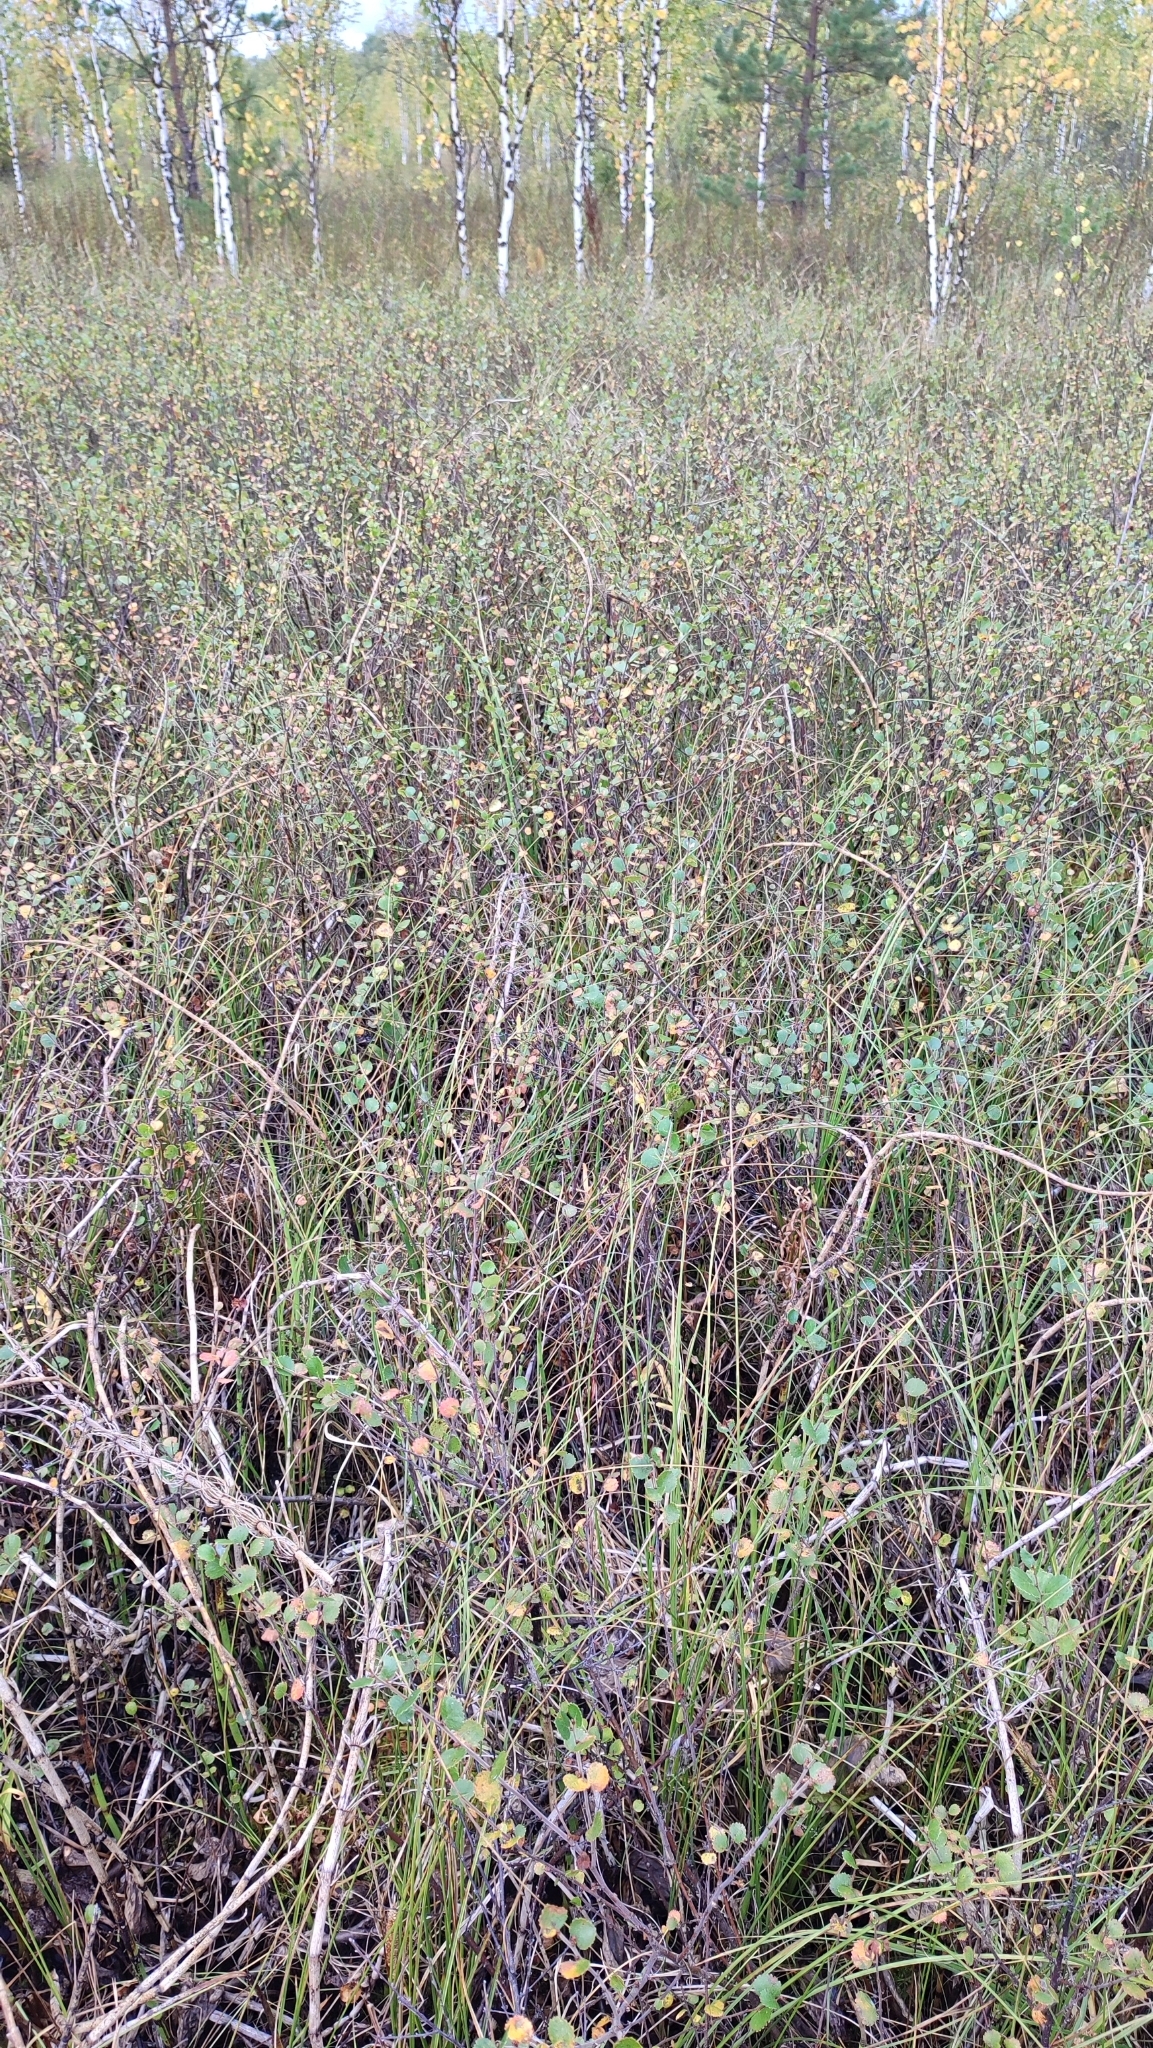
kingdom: Plantae
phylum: Tracheophyta
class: Magnoliopsida
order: Fagales
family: Betulaceae
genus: Betula
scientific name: Betula nana
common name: Arctic dwarf birch
